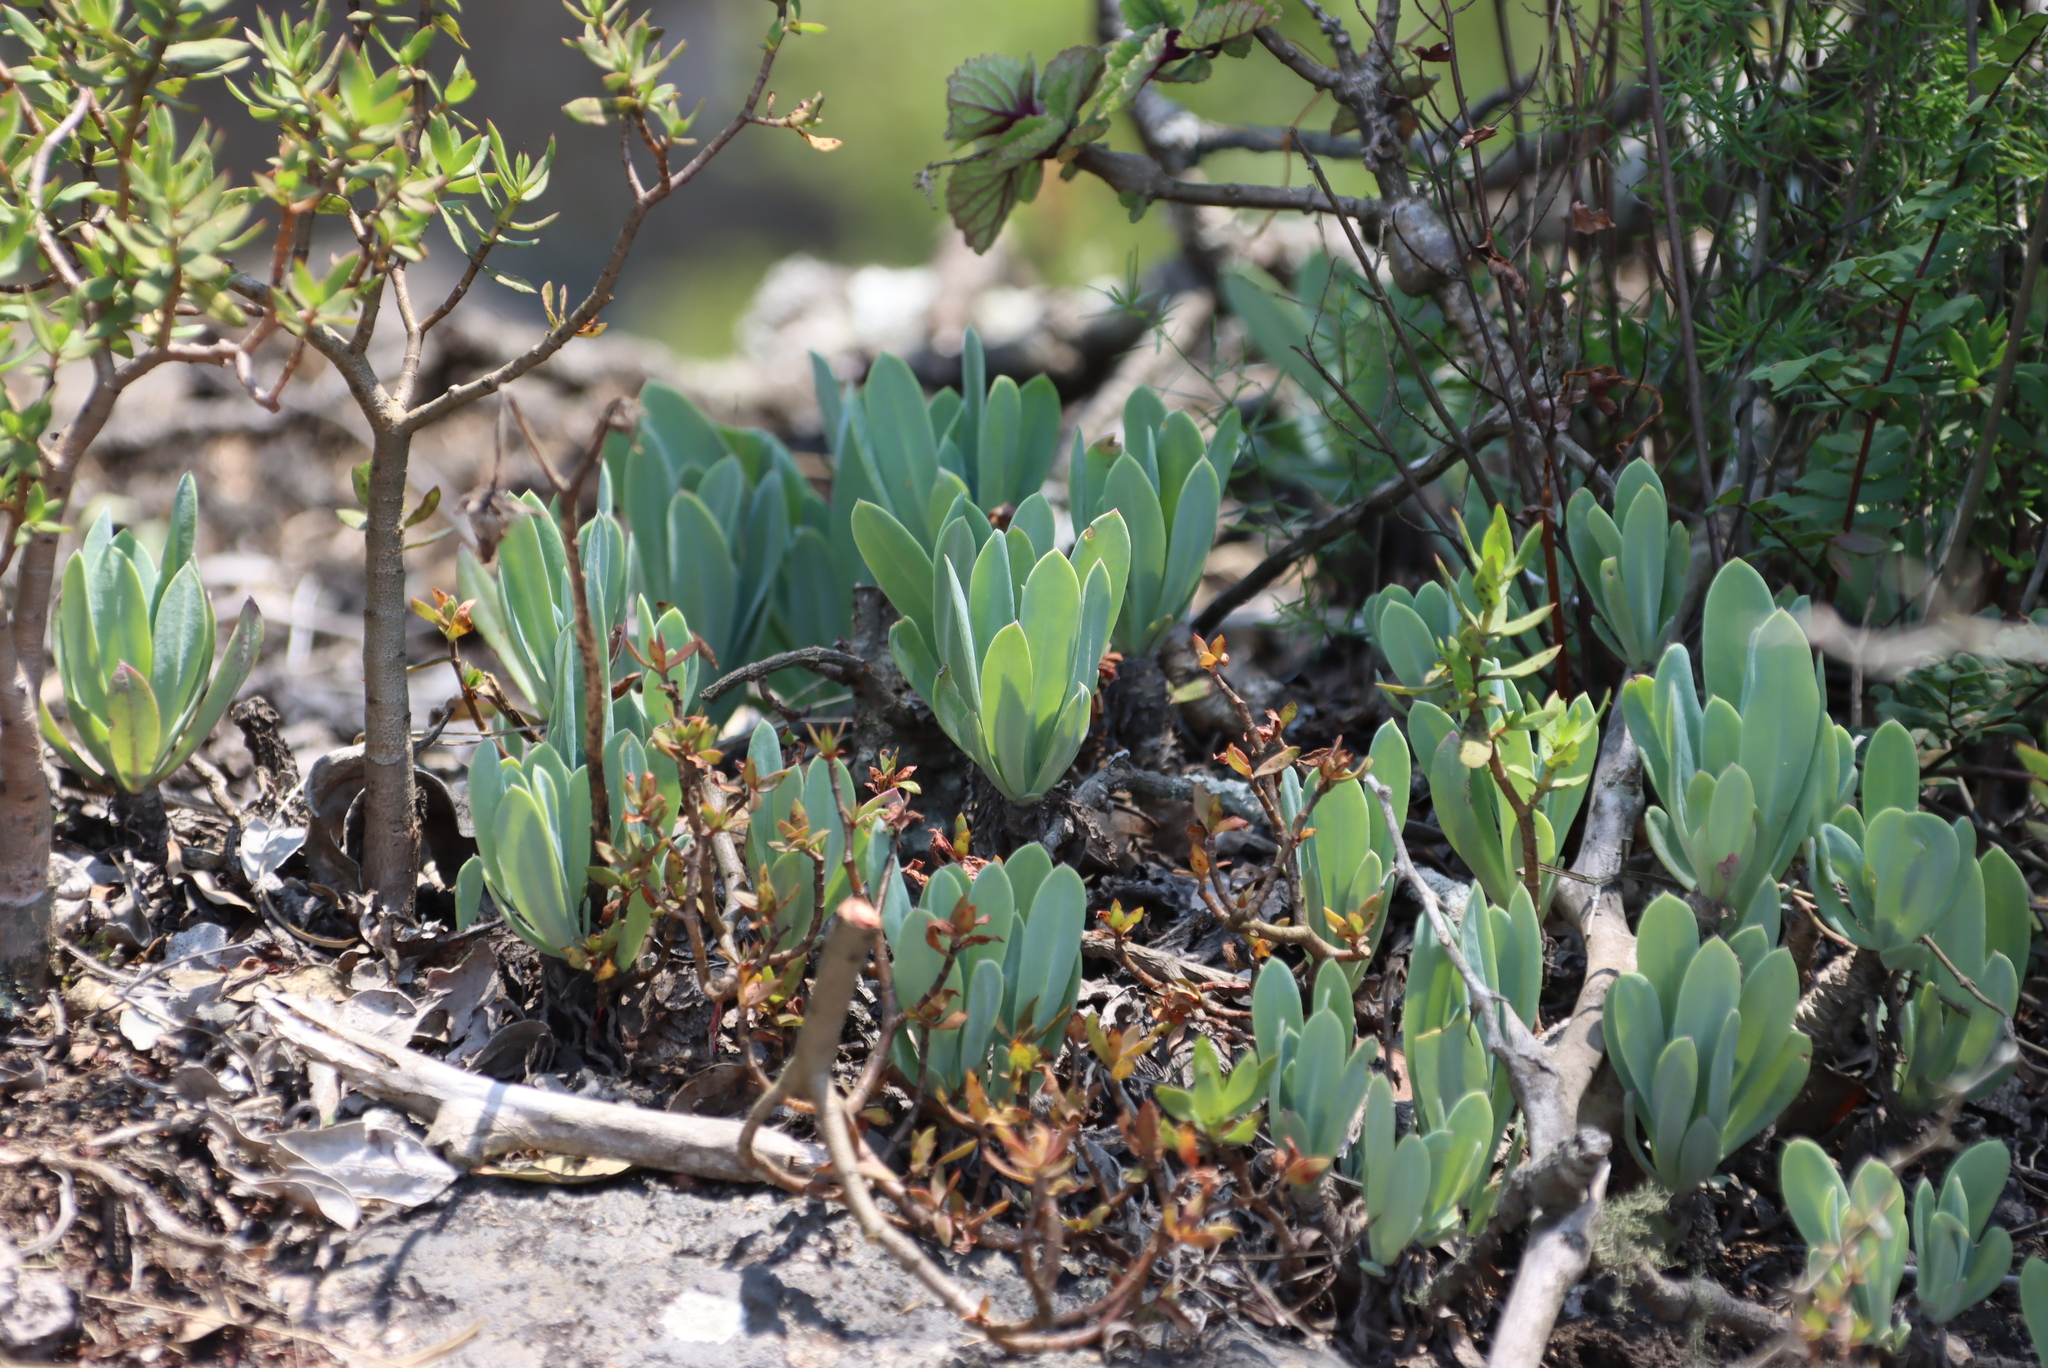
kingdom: Plantae
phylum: Tracheophyta
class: Magnoliopsida
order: Asterales
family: Asteraceae
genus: Kleinia
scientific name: Kleinia galpinii
